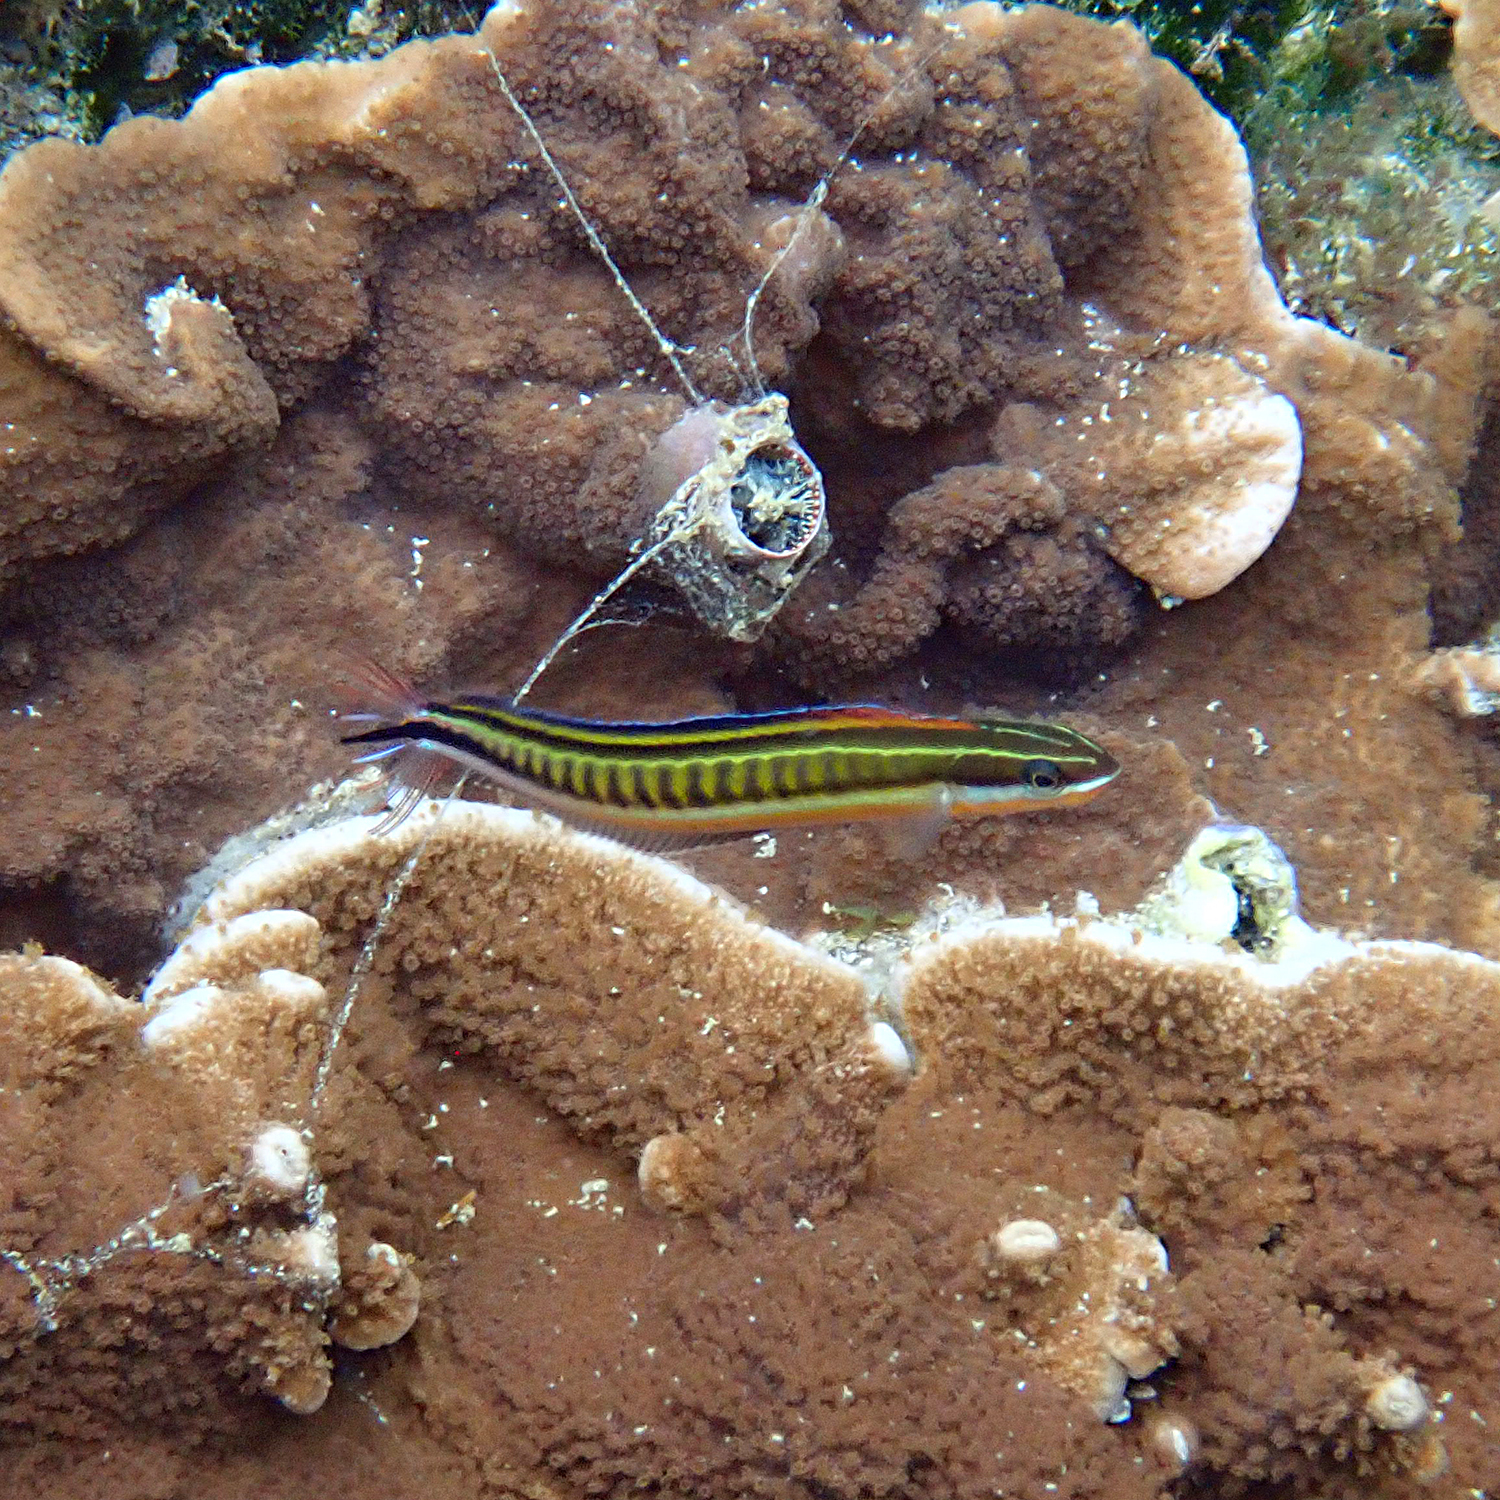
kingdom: Animalia
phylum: Chordata
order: Perciformes
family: Blenniidae
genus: Plagiotremus
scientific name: Plagiotremus tapeinosoma
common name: Hit and run blenny
